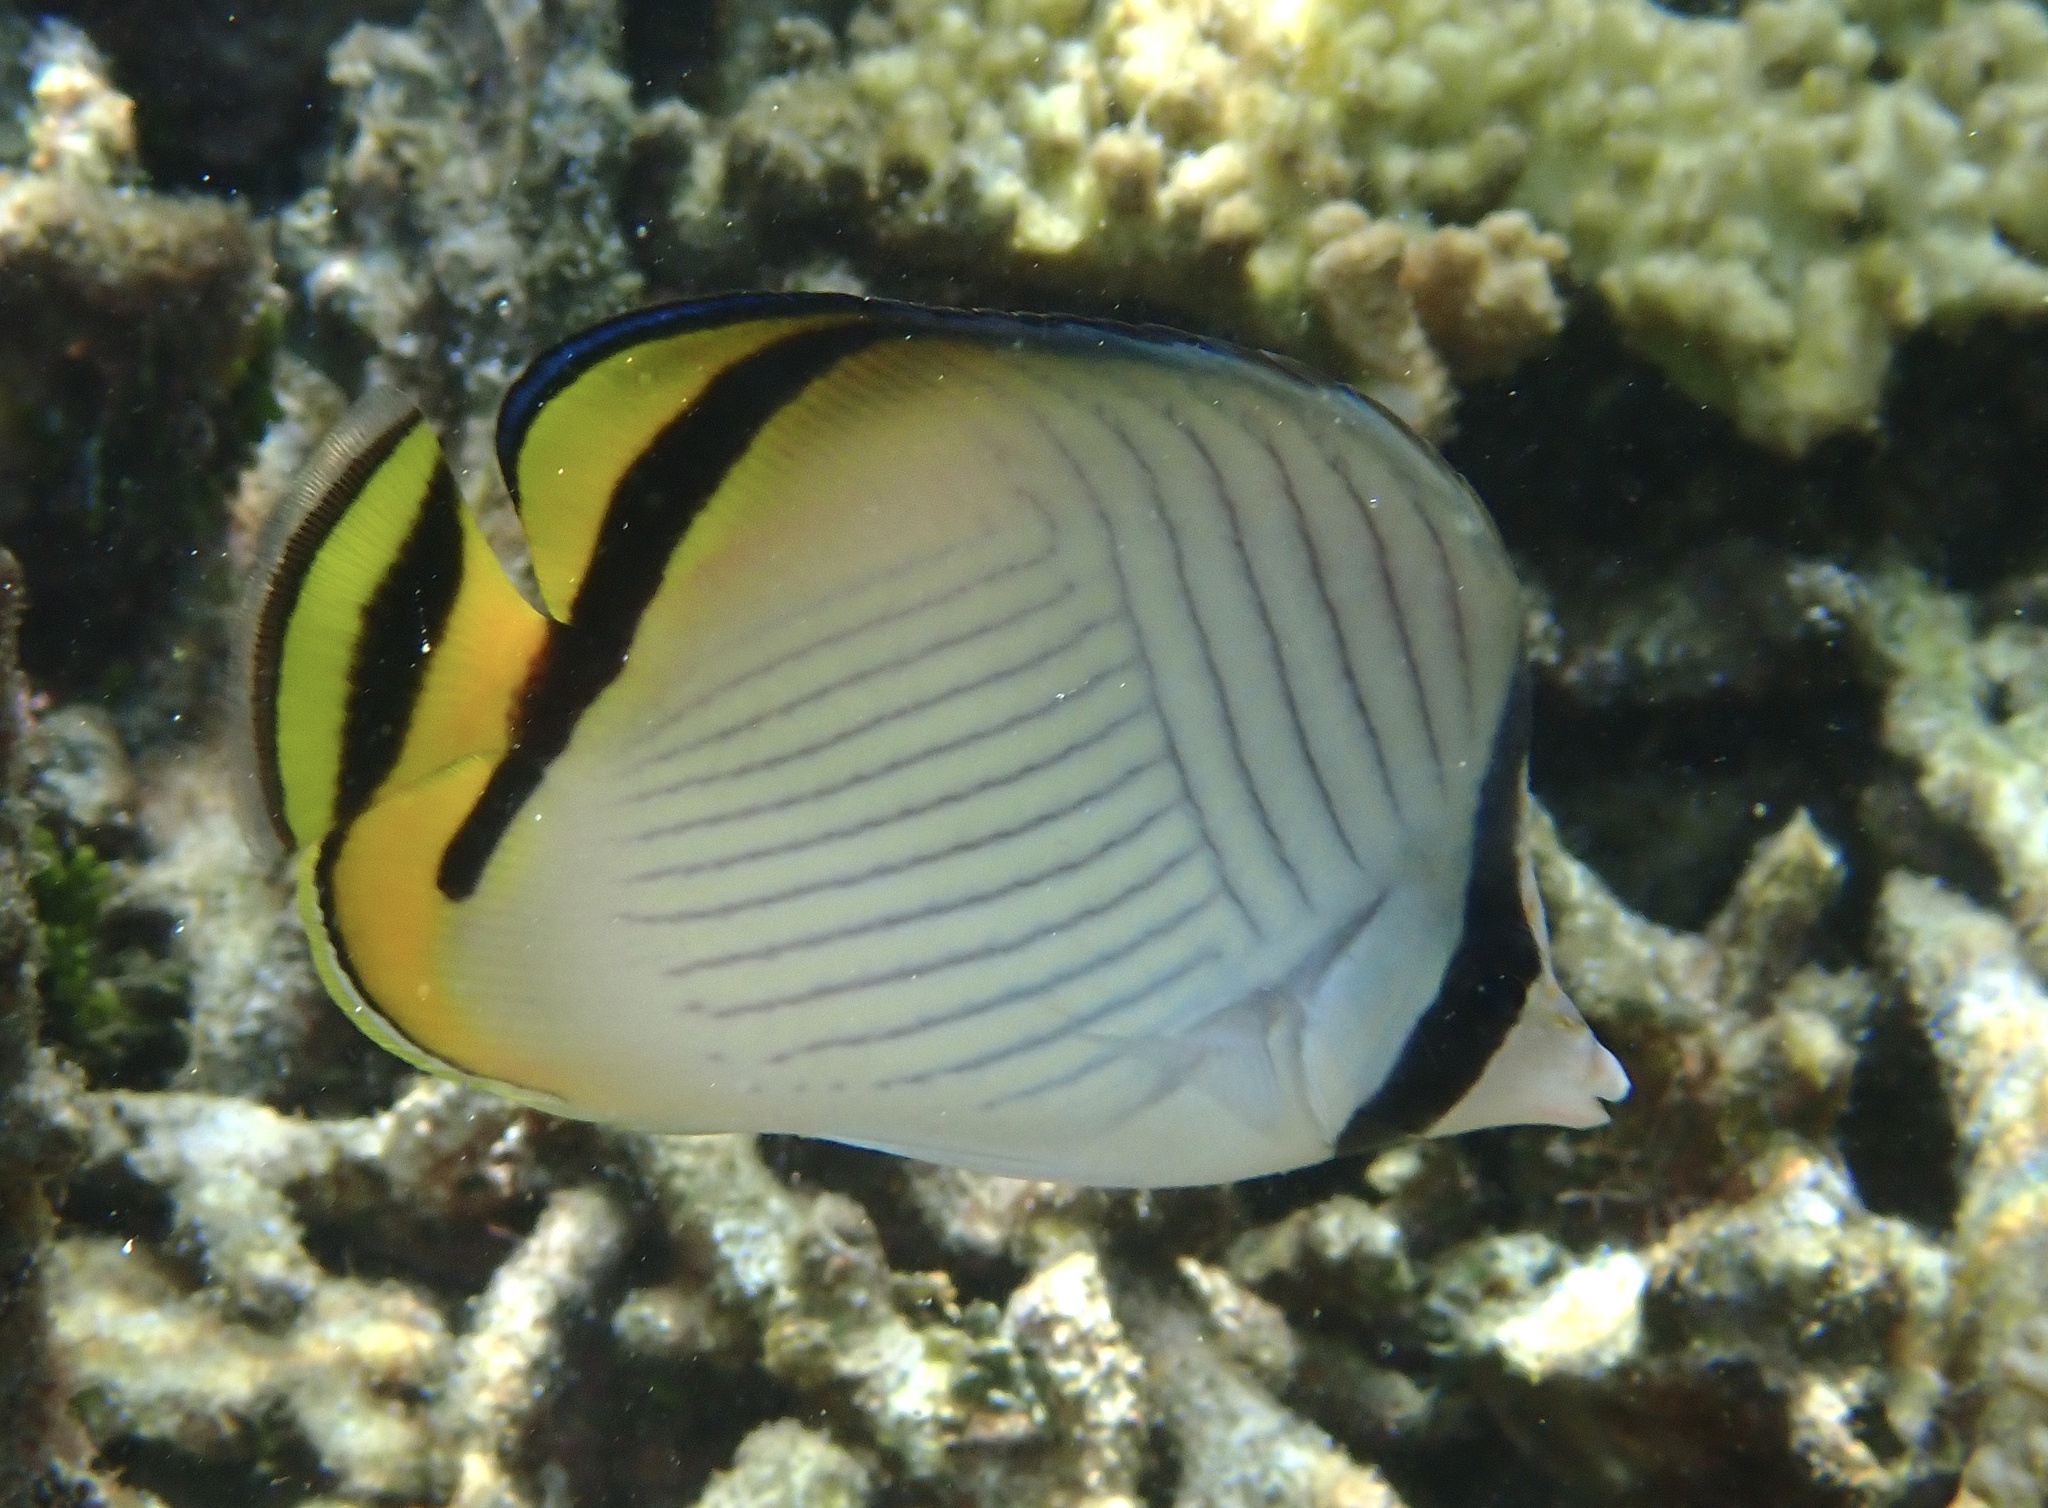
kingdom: Animalia
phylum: Chordata
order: Perciformes
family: Chaetodontidae
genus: Chaetodon
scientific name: Chaetodon vagabundus
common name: Vagabond butterflyfish
